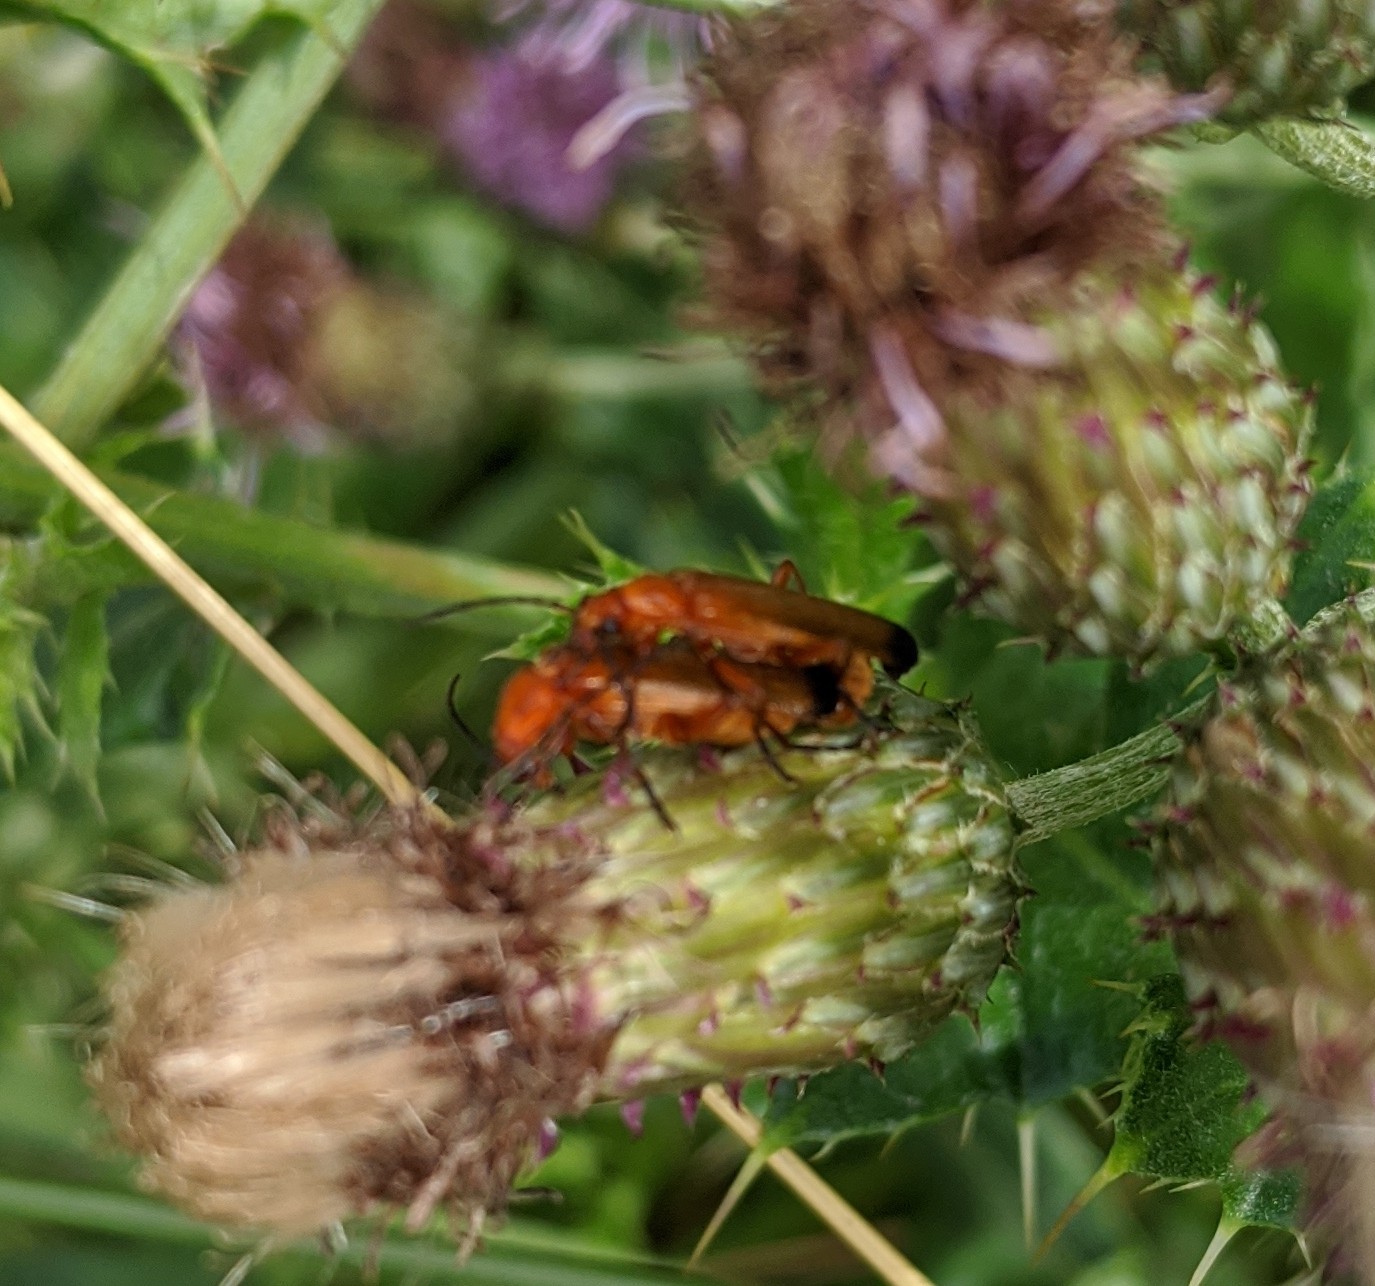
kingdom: Animalia
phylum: Arthropoda
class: Insecta
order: Coleoptera
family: Cantharidae
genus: Rhagonycha
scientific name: Rhagonycha fulva
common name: Common red soldier beetle
